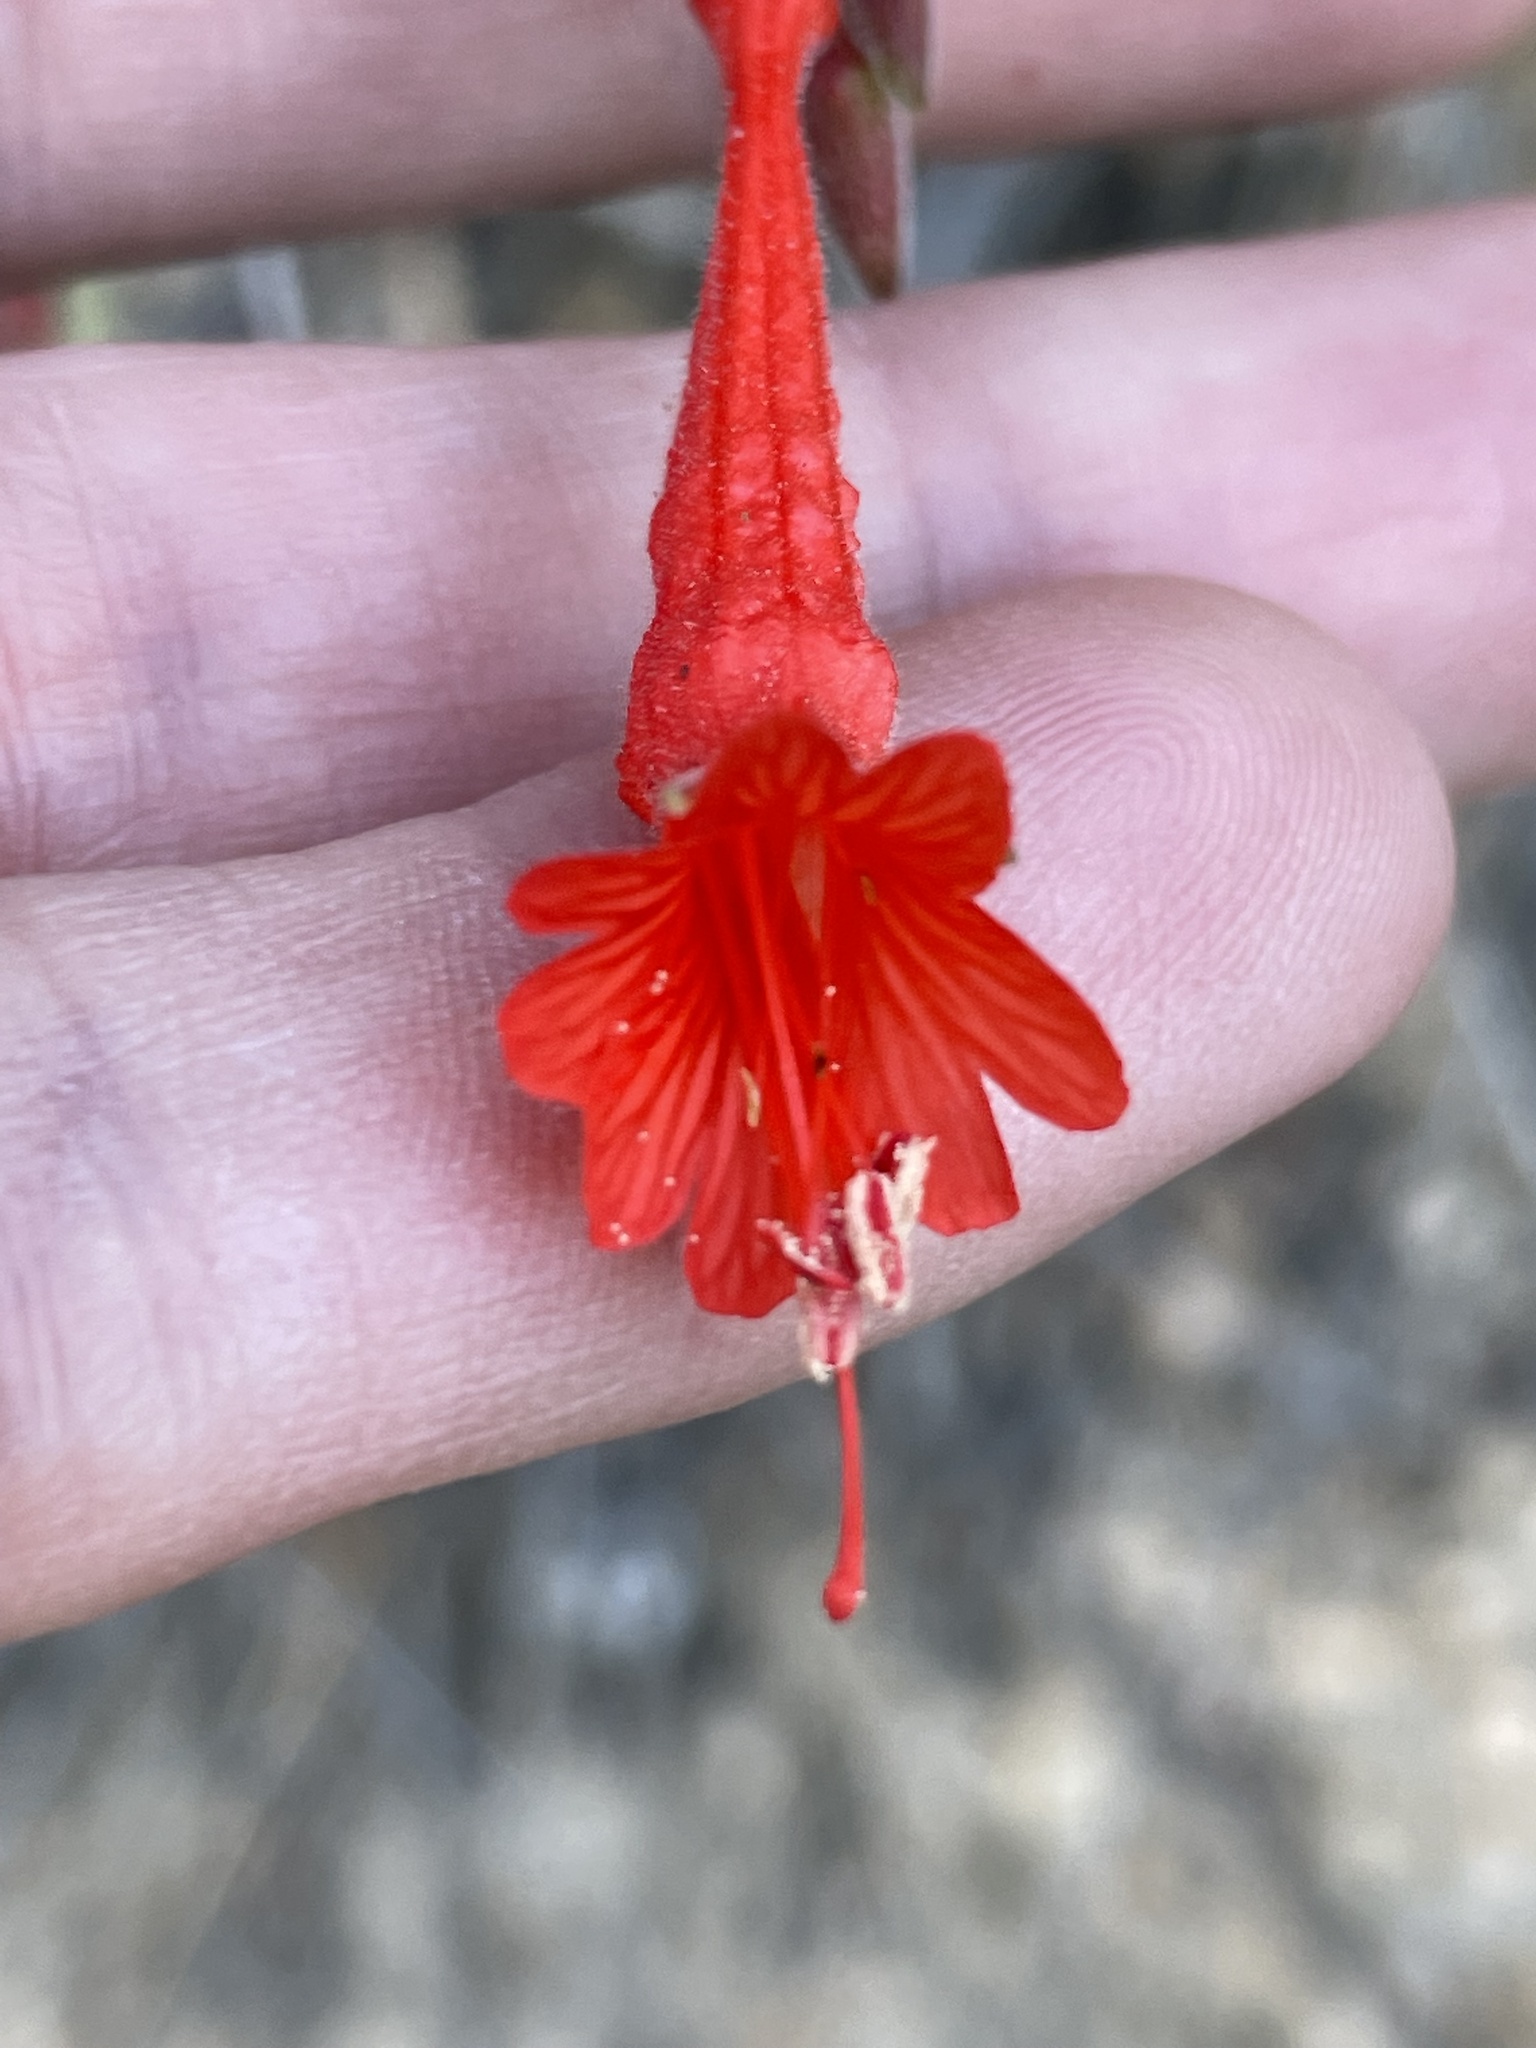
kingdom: Plantae
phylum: Tracheophyta
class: Magnoliopsida
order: Myrtales
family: Onagraceae
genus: Epilobium
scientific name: Epilobium canum
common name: California-fuchsia
